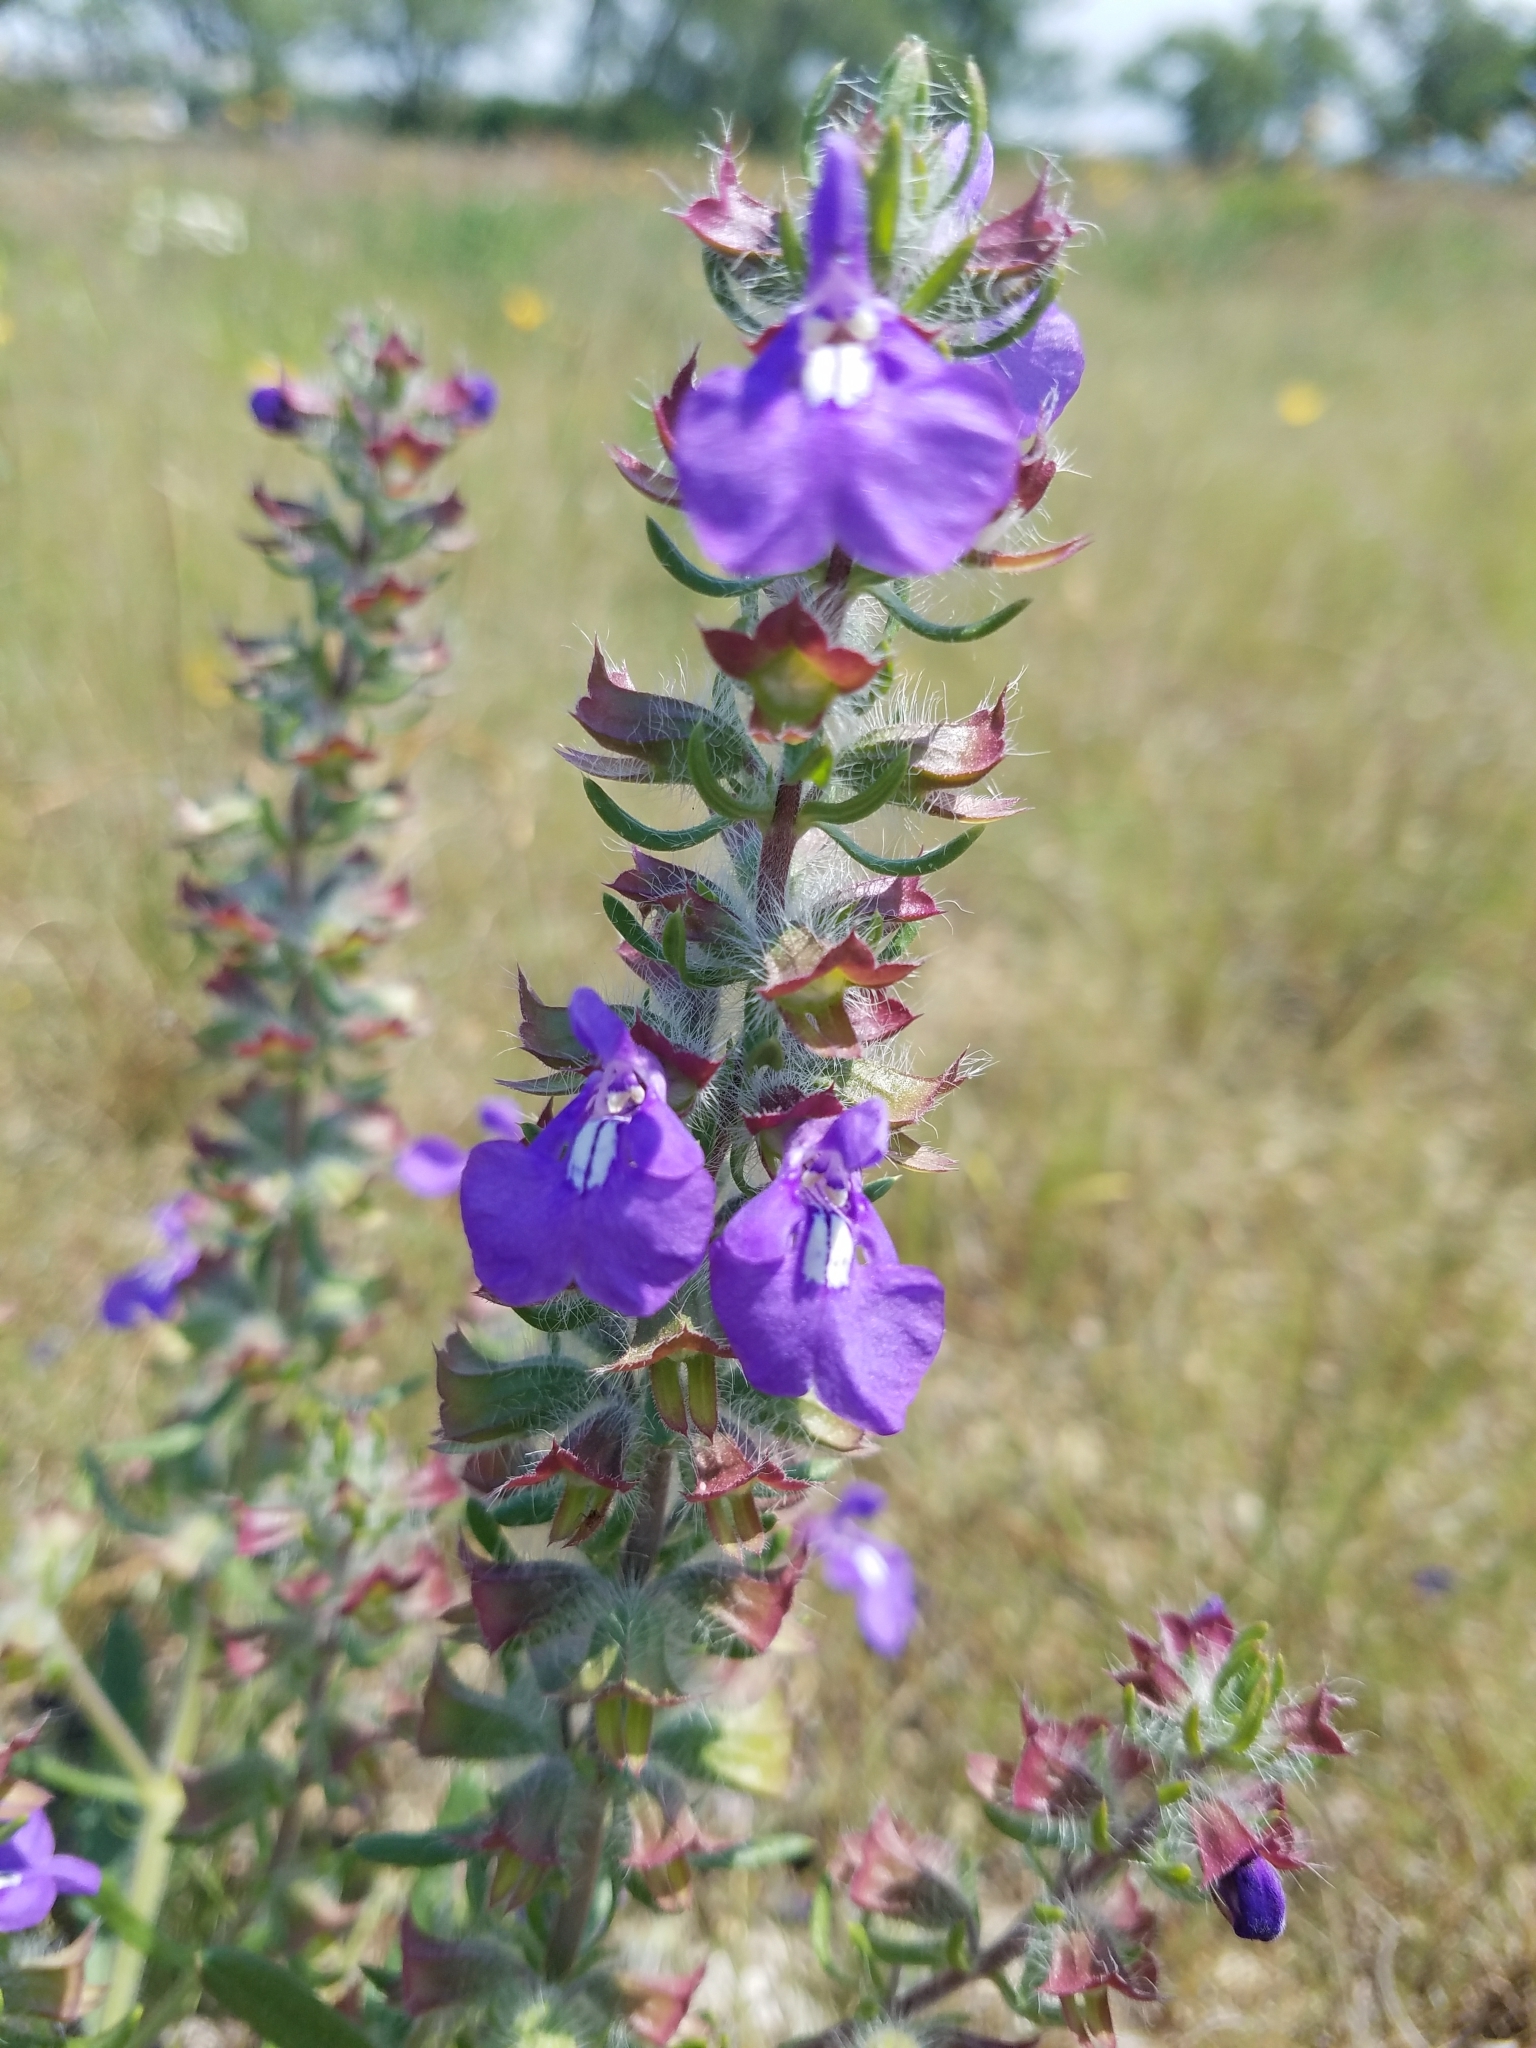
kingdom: Plantae
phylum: Tracheophyta
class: Magnoliopsida
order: Lamiales
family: Lamiaceae
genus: Salvia
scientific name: Salvia texana
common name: Texas sage
